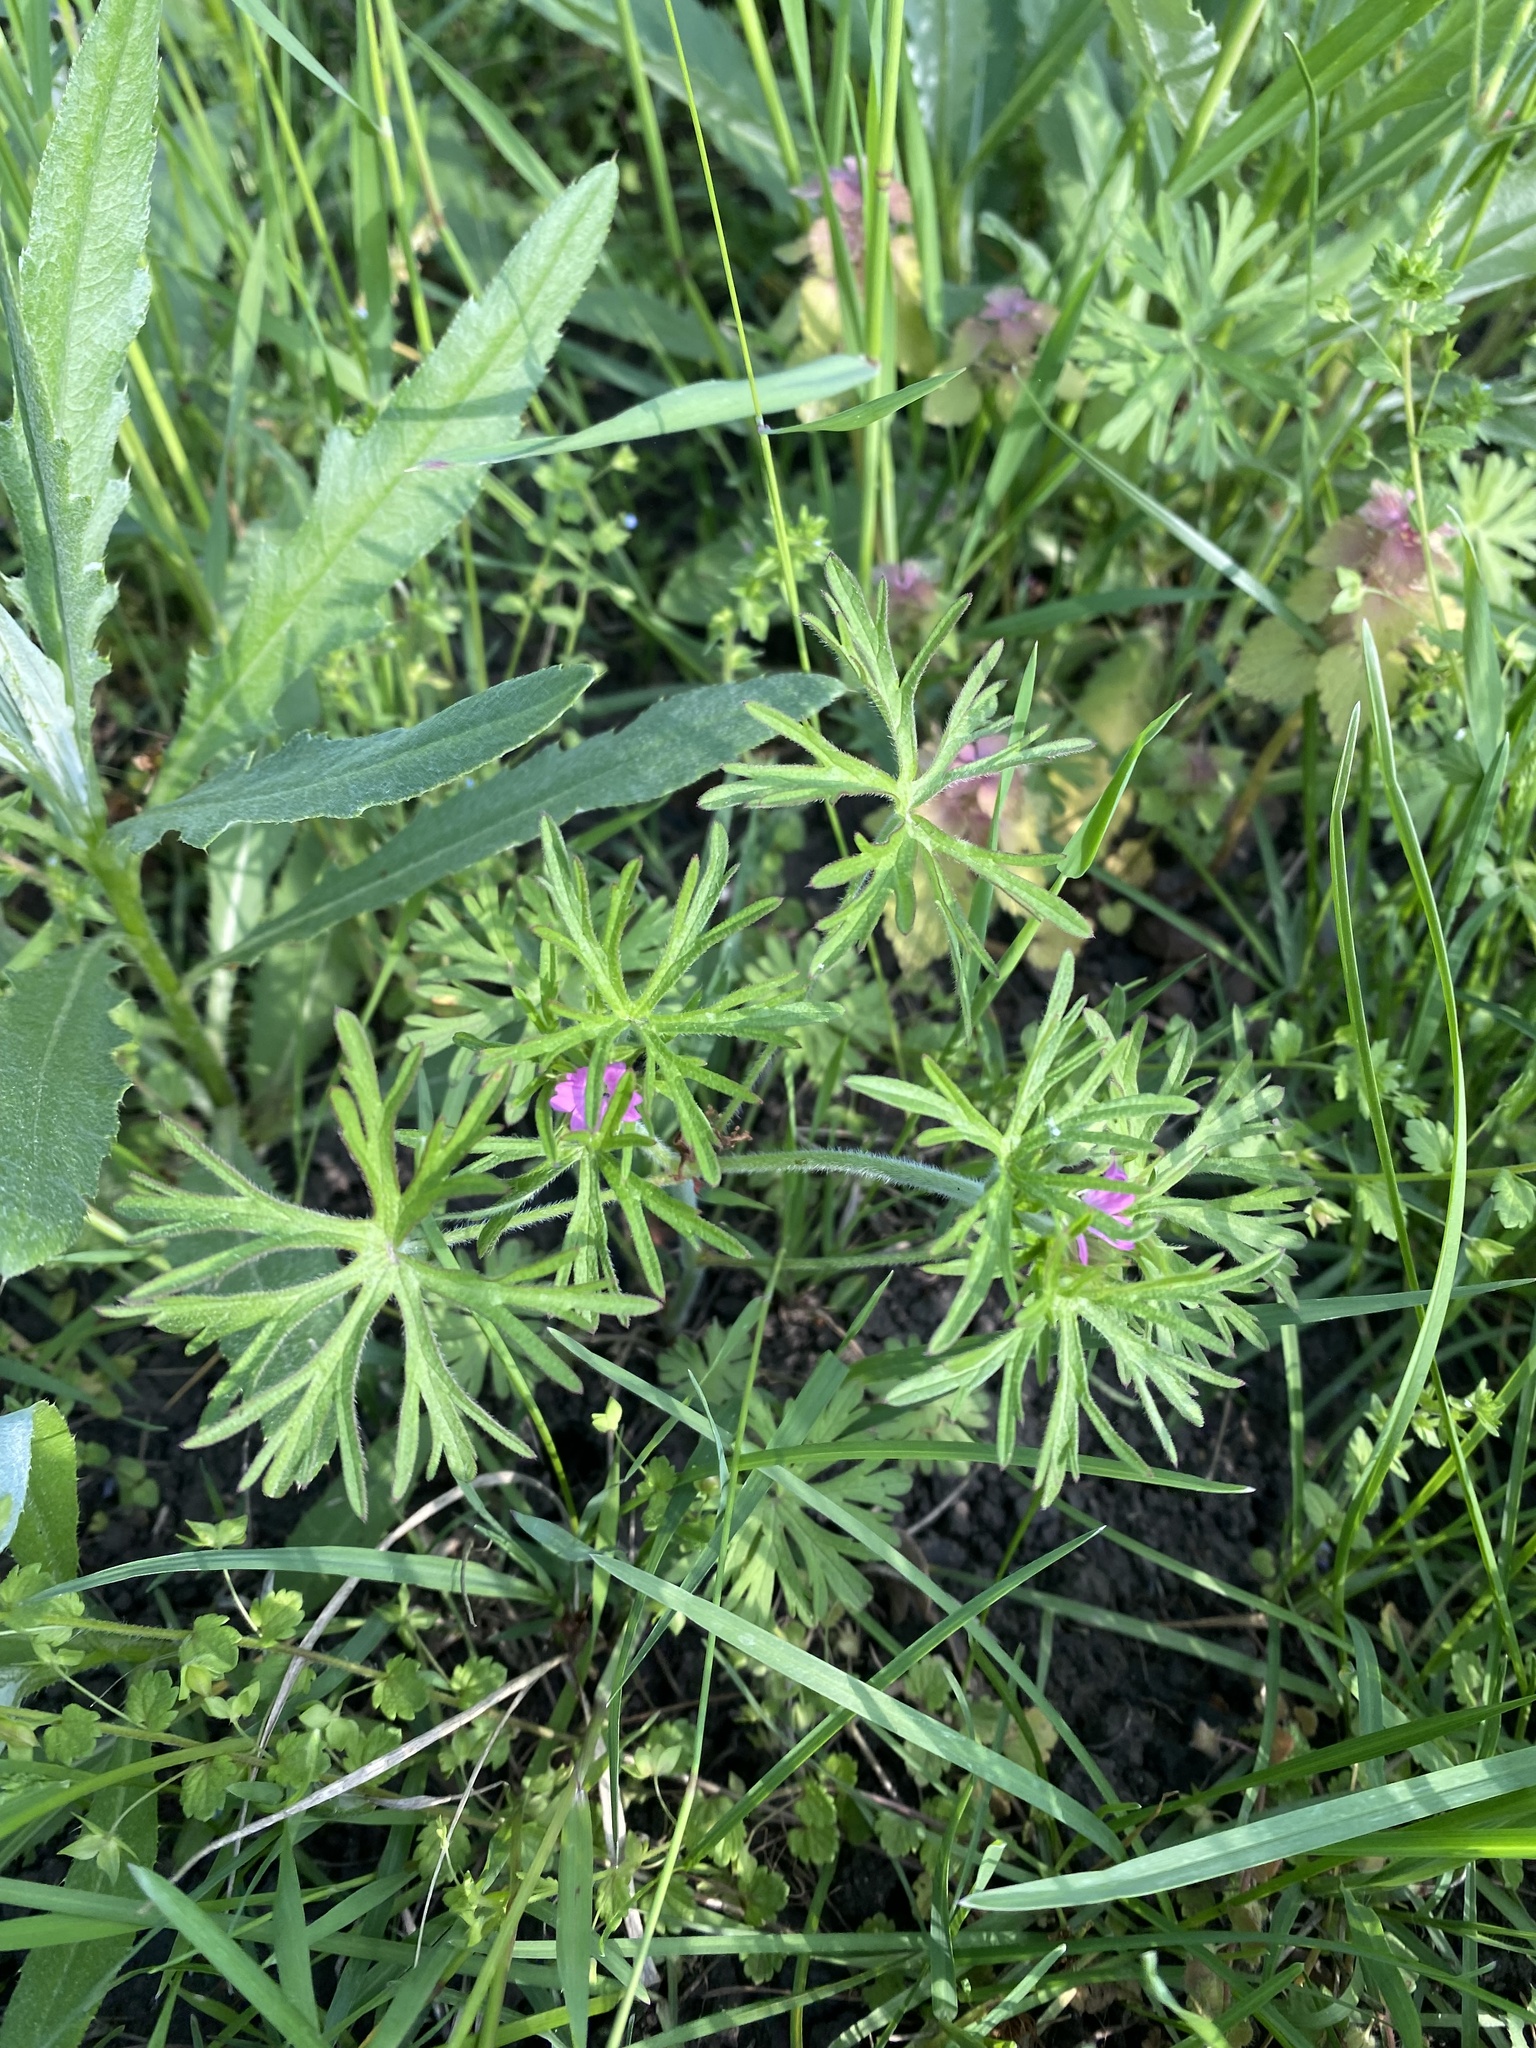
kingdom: Plantae
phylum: Tracheophyta
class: Magnoliopsida
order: Geraniales
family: Geraniaceae
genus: Geranium
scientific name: Geranium dissectum
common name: Cut-leaved crane's-bill
